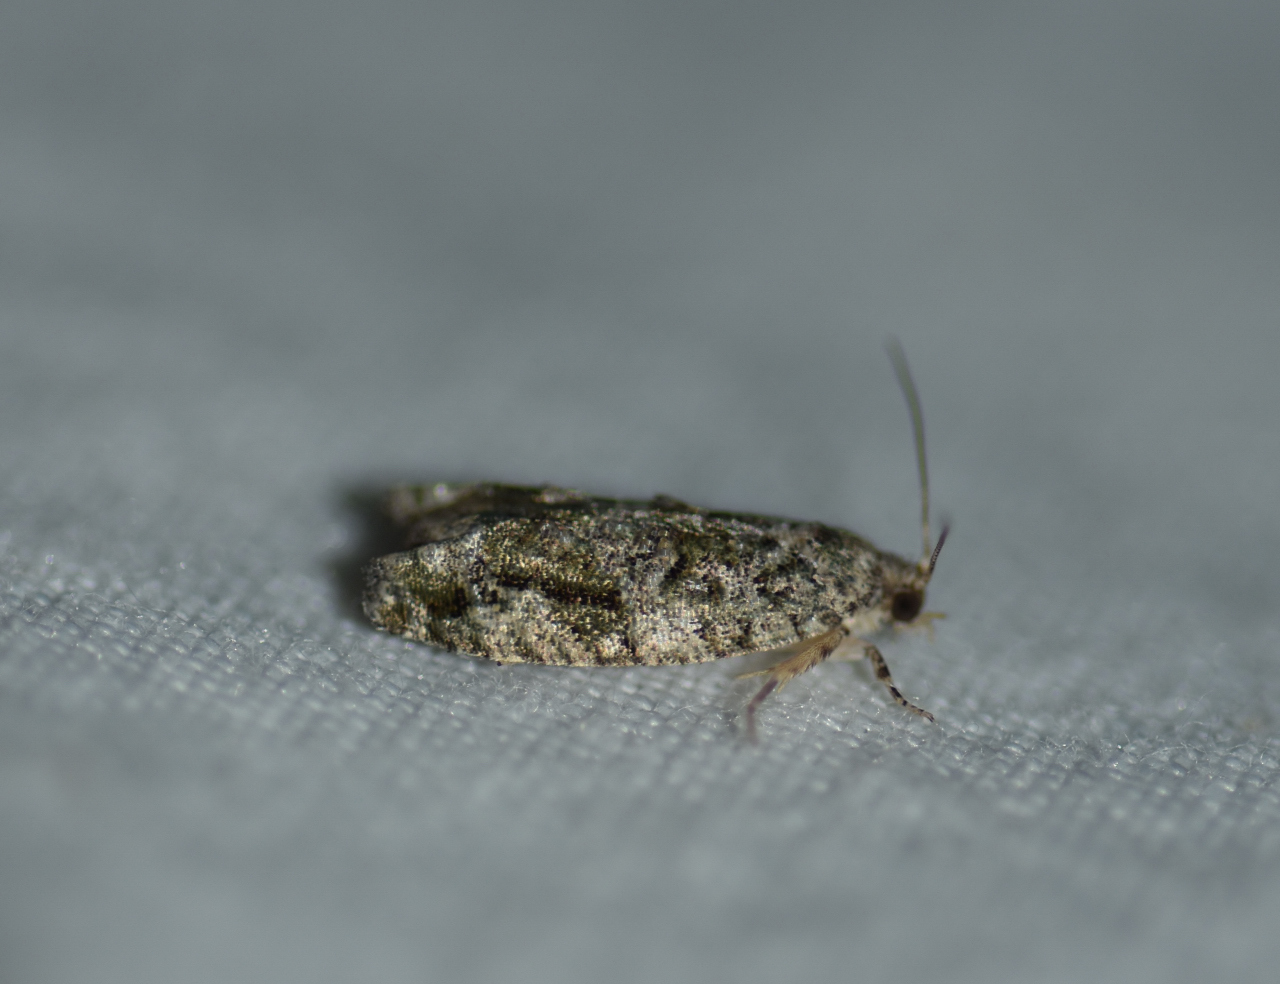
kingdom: Animalia
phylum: Arthropoda
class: Insecta
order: Lepidoptera
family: Tortricidae
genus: Proteoteras
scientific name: Proteoteras aesculana
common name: Maple twig borer moth
